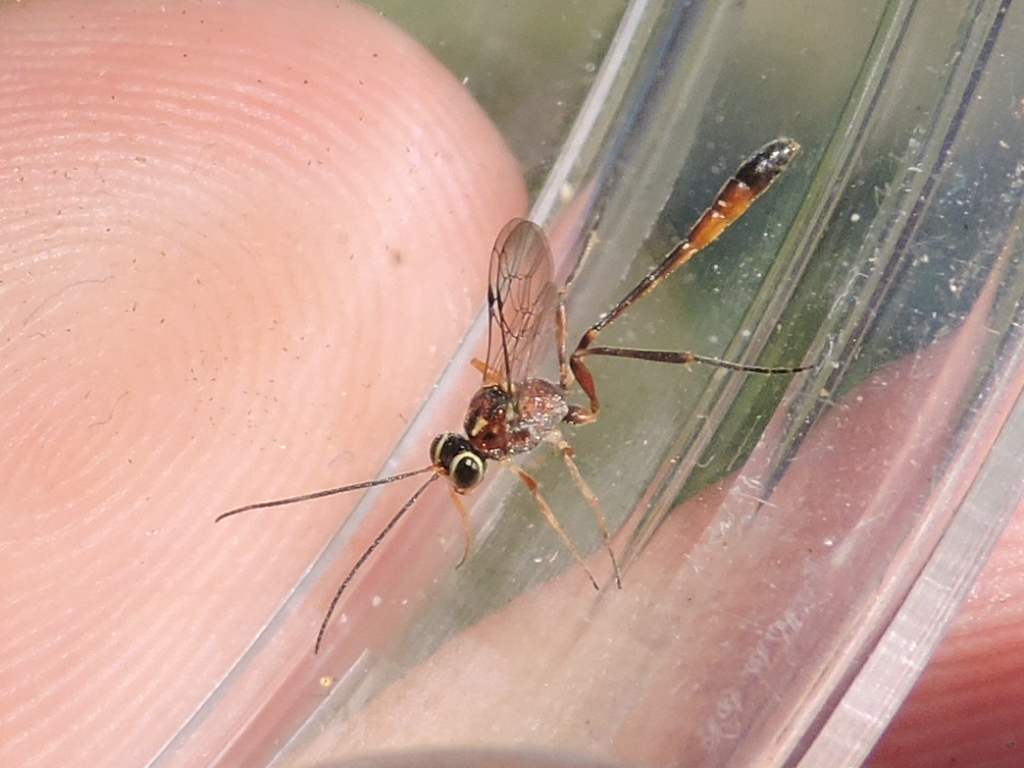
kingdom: Animalia
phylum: Arthropoda
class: Insecta
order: Hymenoptera
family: Ichneumonidae
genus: Anomalon
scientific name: Anomalon
